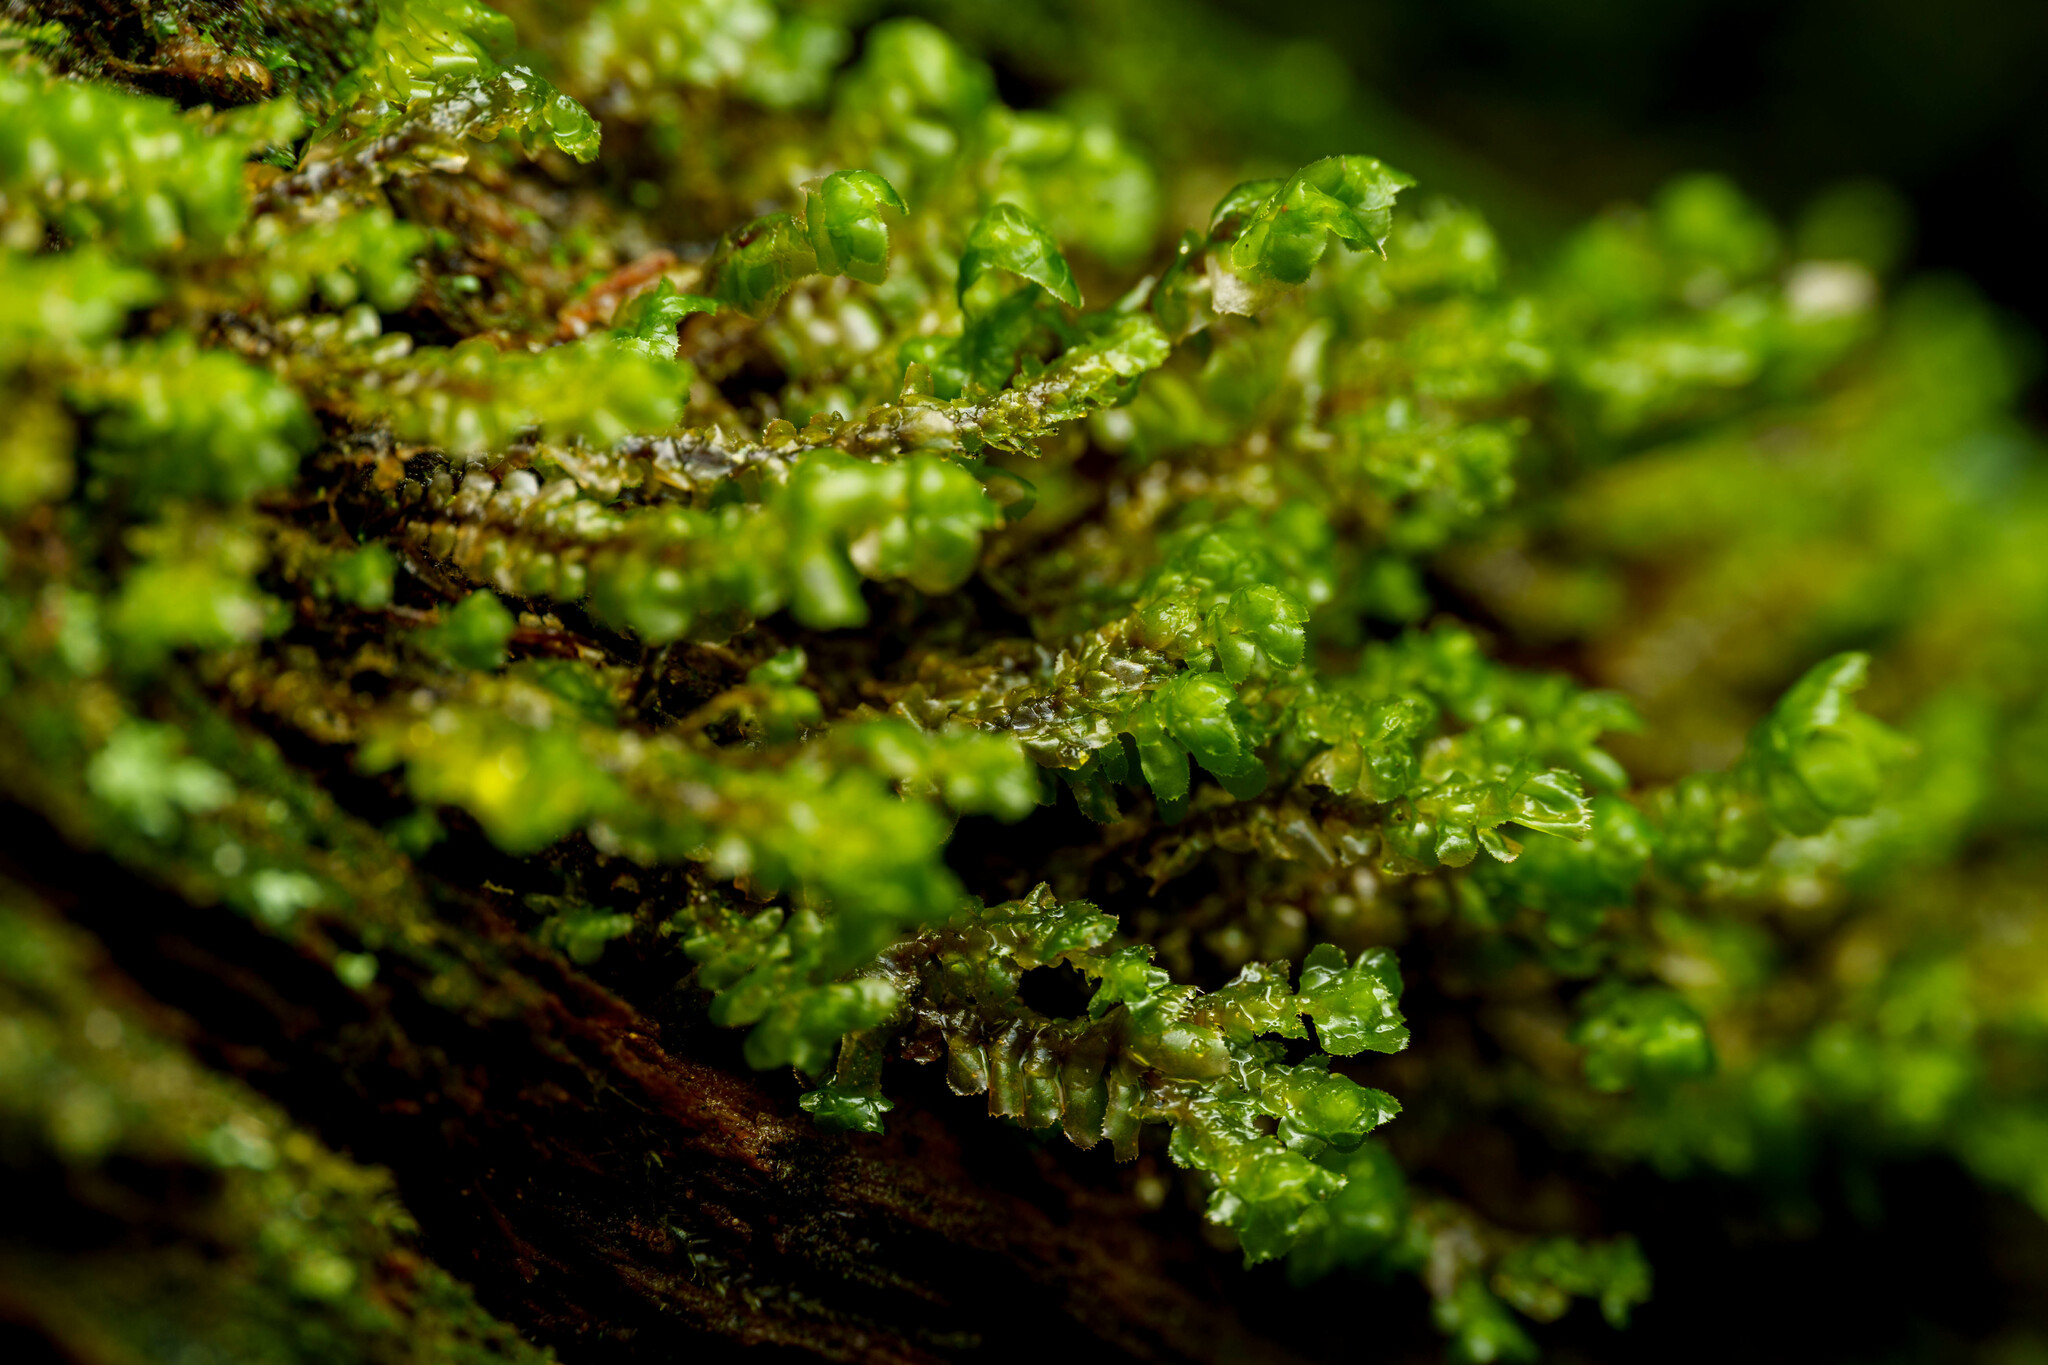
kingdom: Plantae
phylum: Marchantiophyta
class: Jungermanniopsida
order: Jungermanniales
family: Scapaniaceae
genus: Scapania
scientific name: Scapania bolanderi
